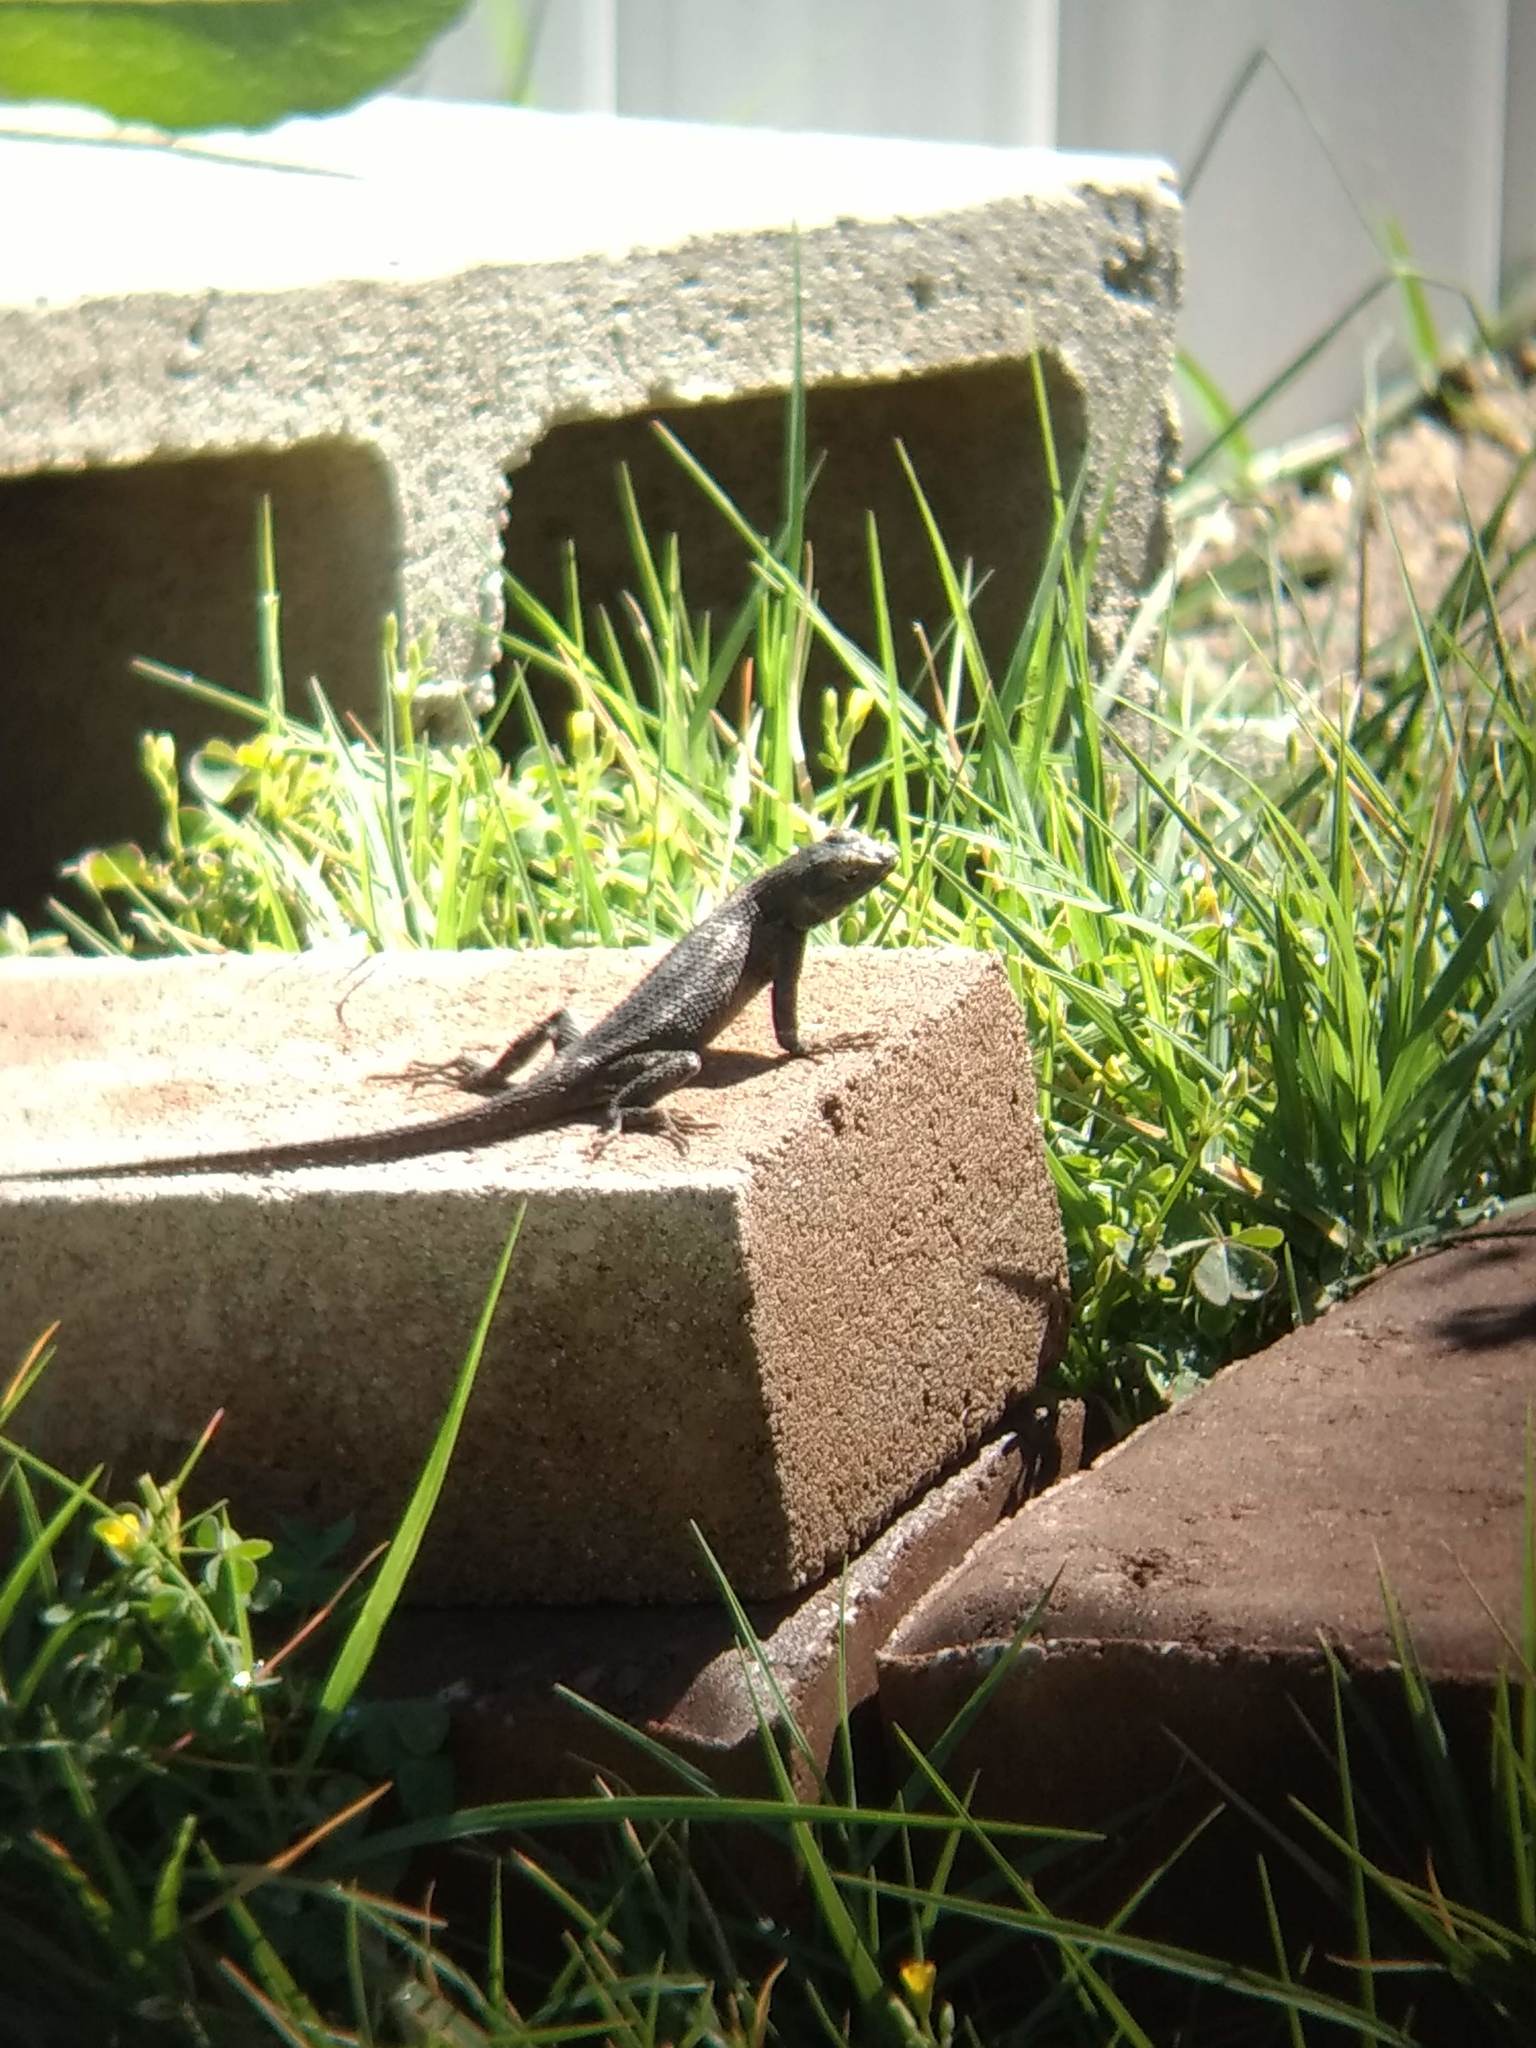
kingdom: Animalia
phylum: Chordata
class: Squamata
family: Phrynosomatidae
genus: Sceloporus
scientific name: Sceloporus occidentalis
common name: Western fence lizard
